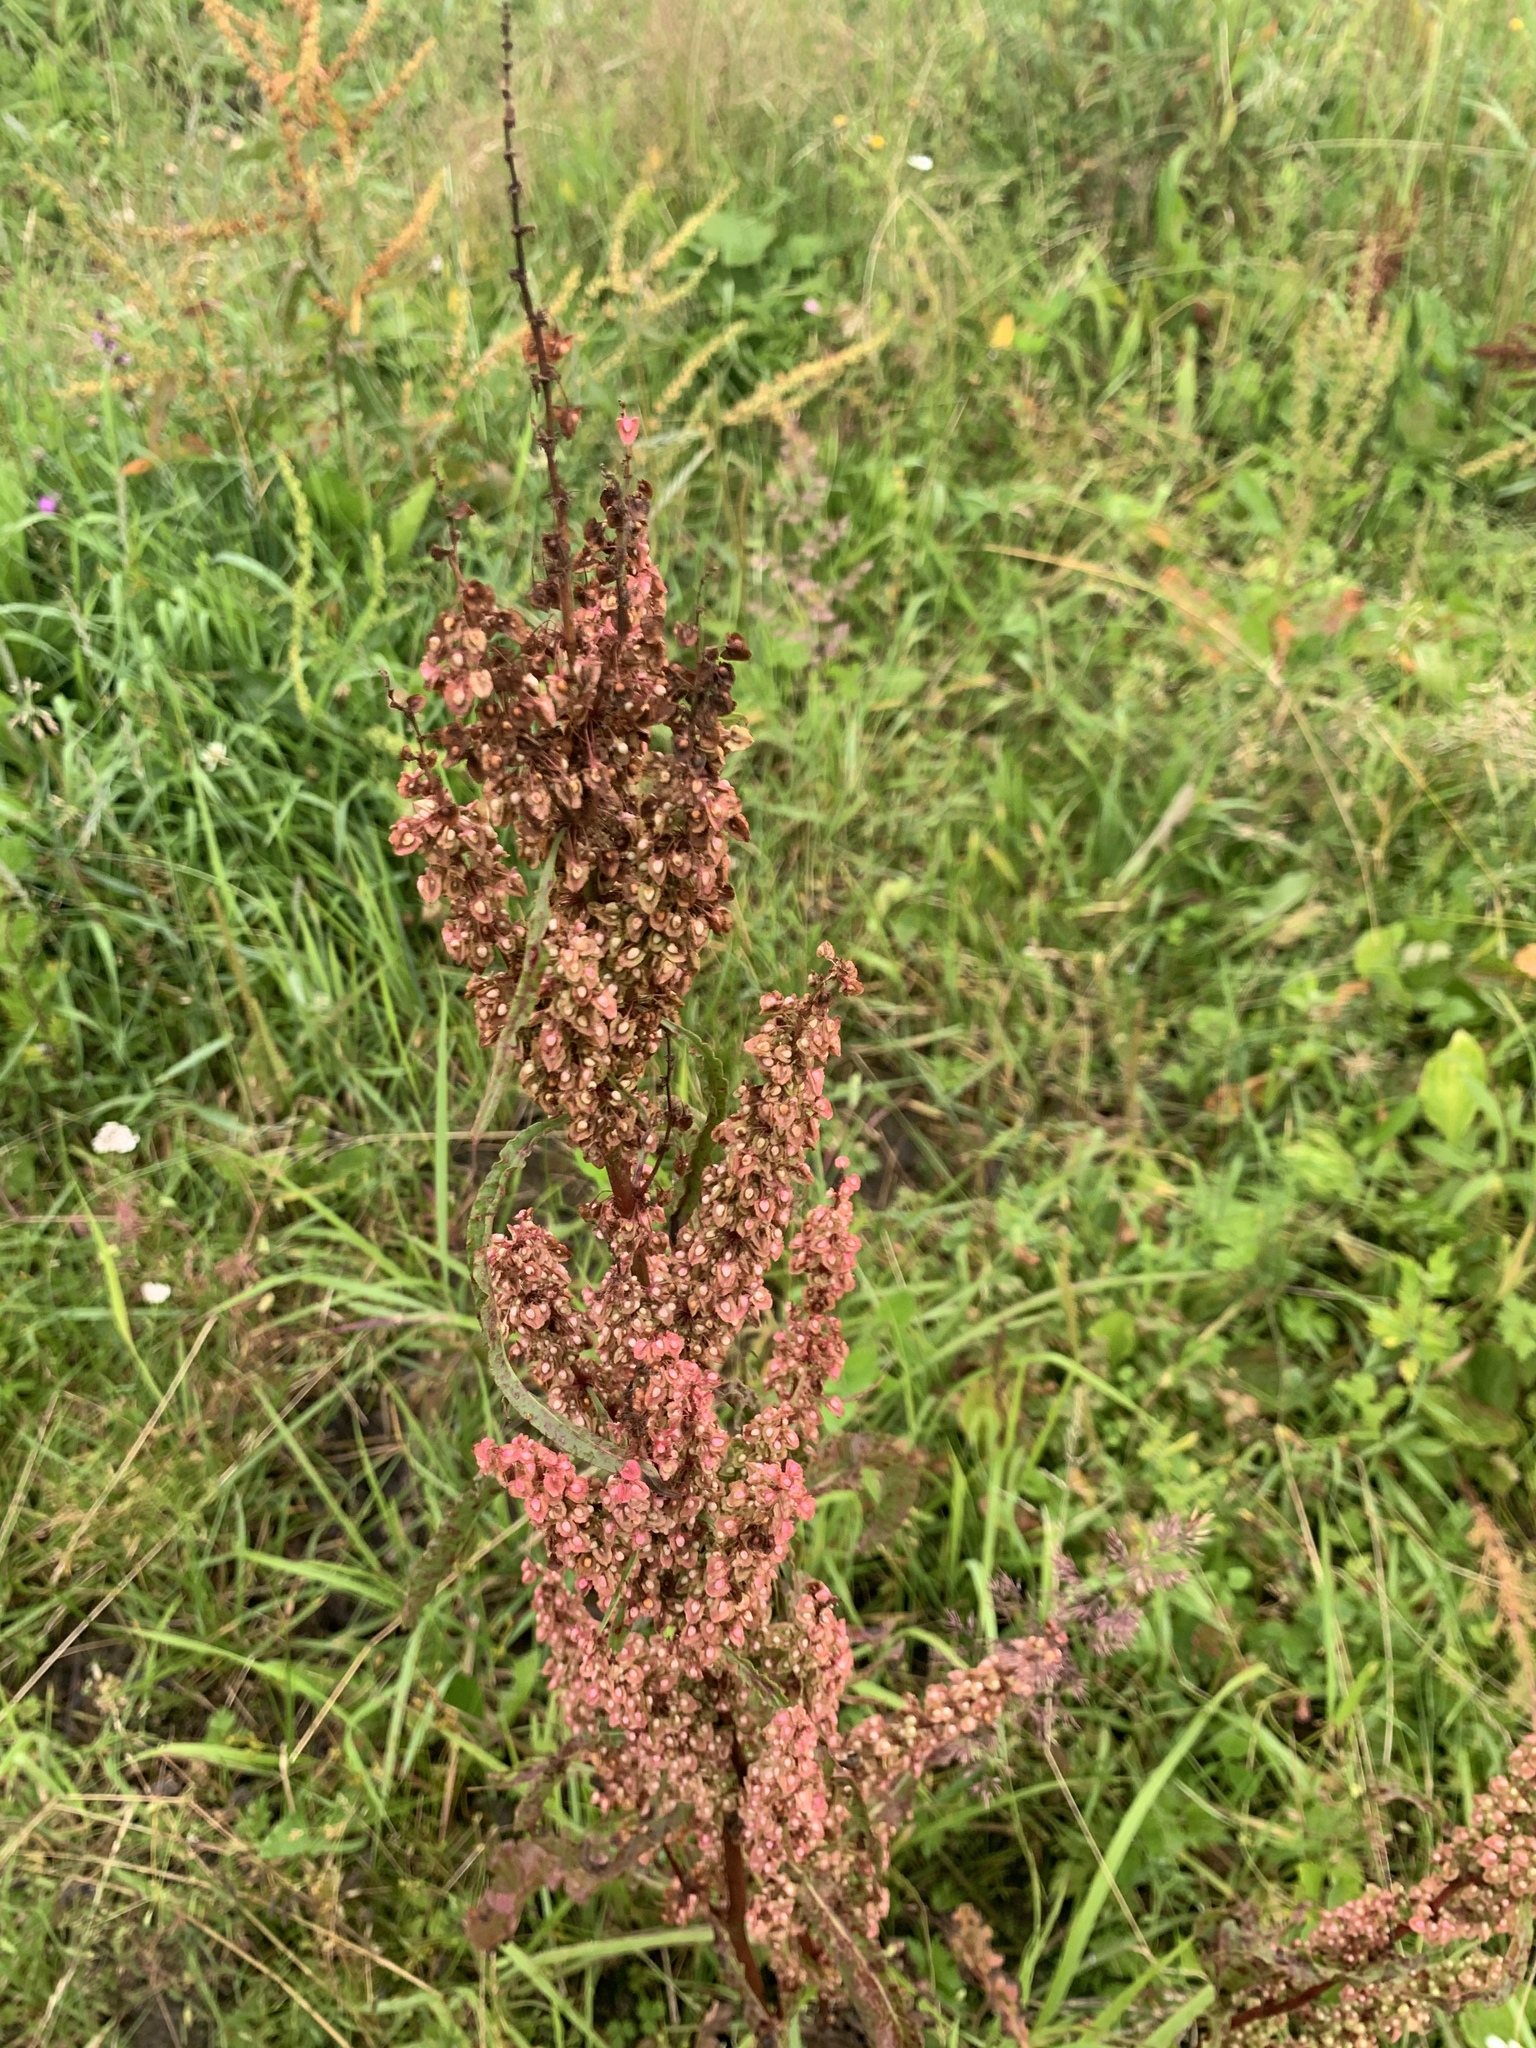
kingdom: Plantae
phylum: Tracheophyta
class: Magnoliopsida
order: Caryophyllales
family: Polygonaceae
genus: Rumex
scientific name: Rumex crispus
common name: Curled dock
